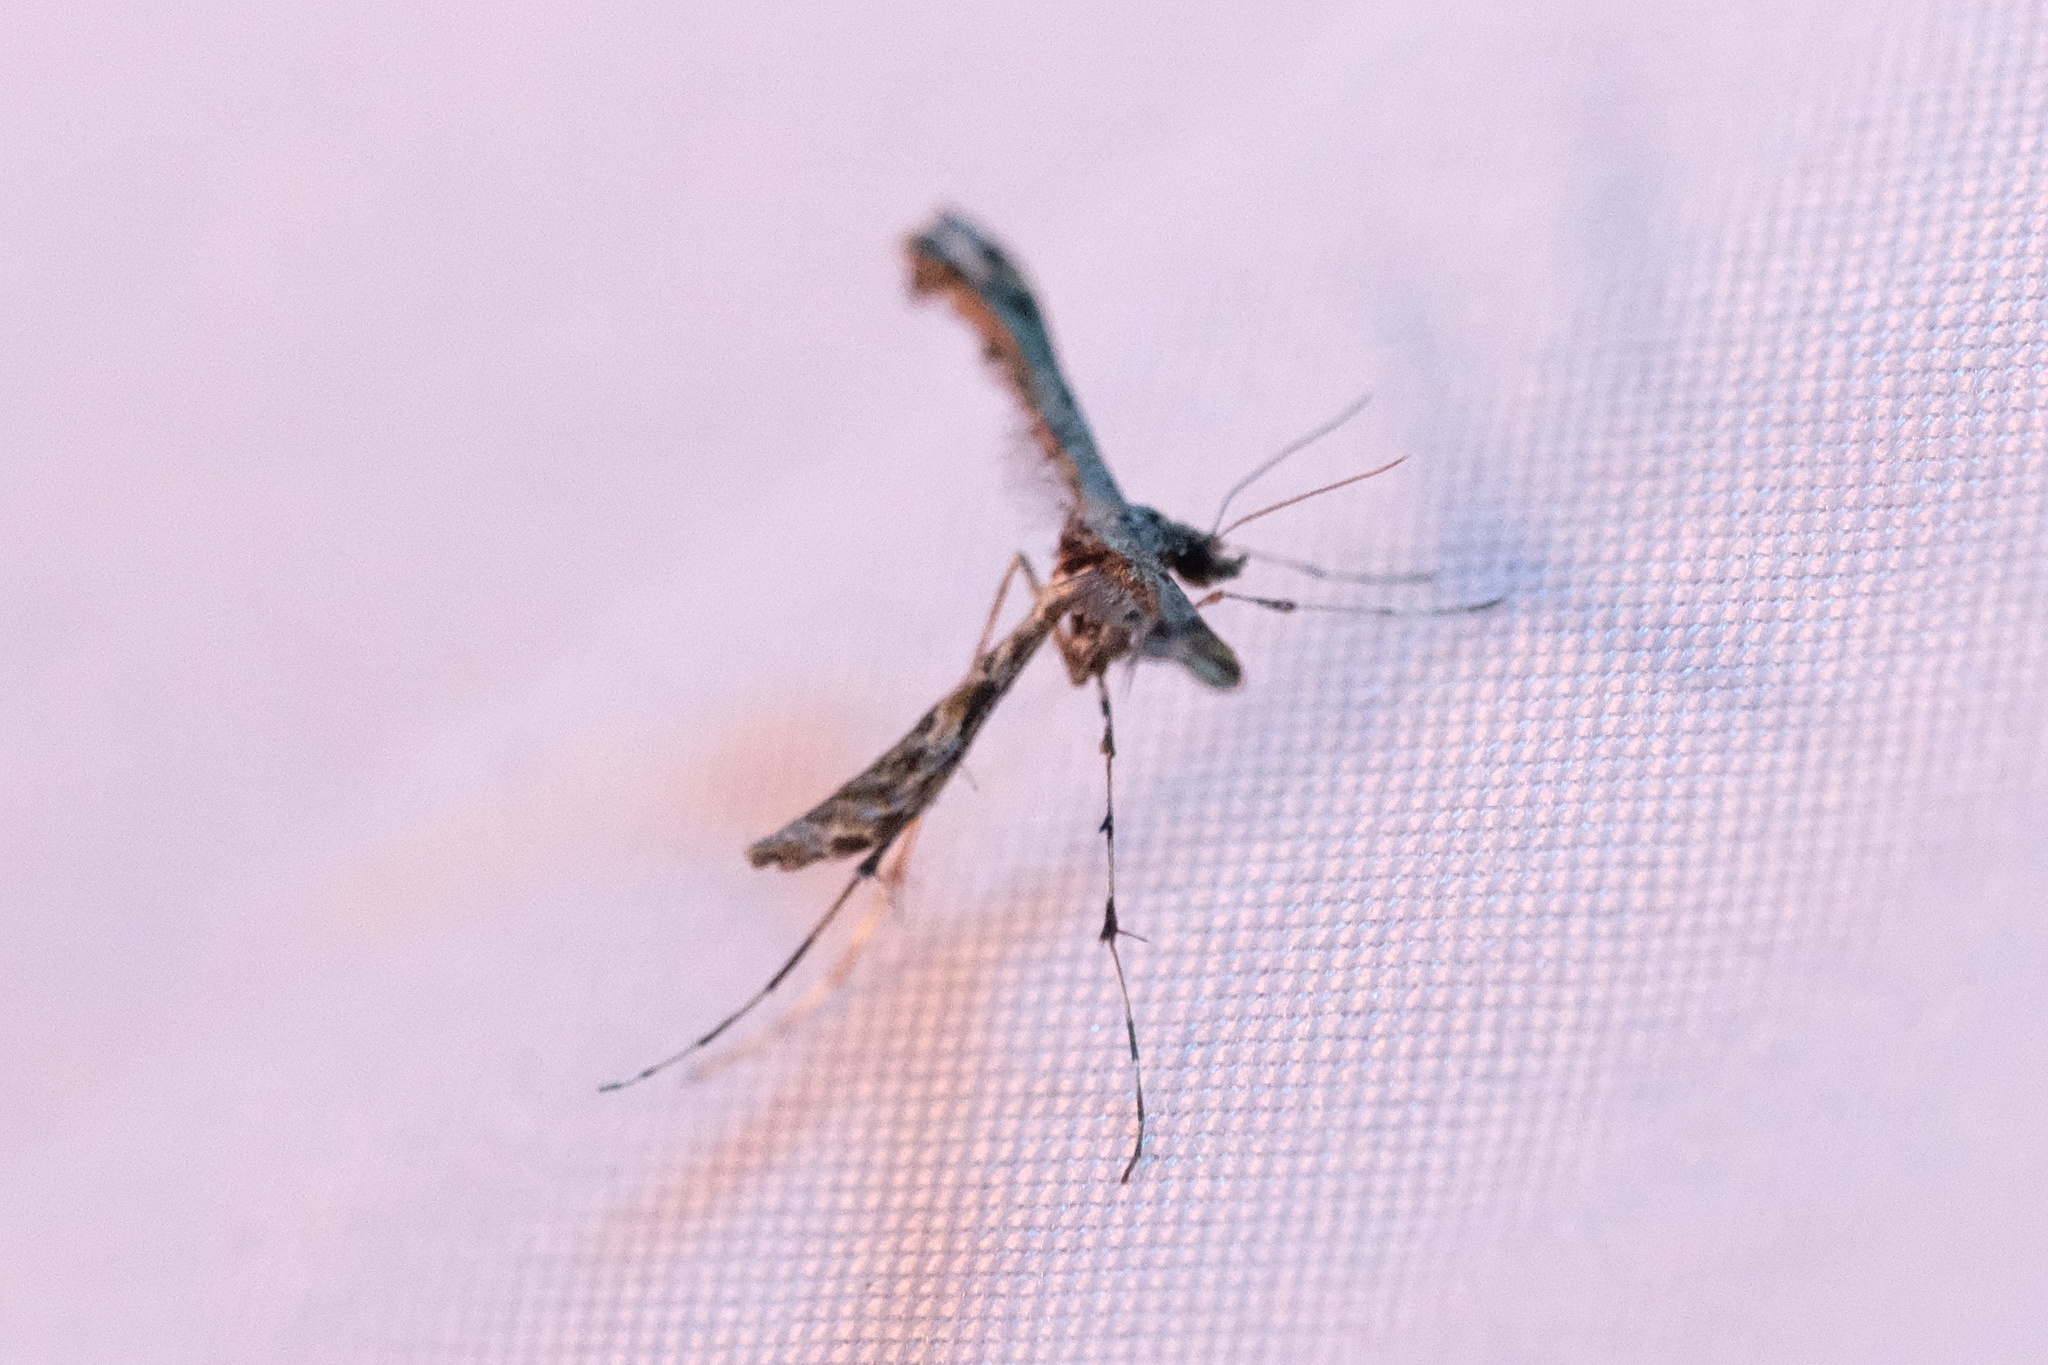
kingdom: Animalia
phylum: Arthropoda
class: Insecta
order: Lepidoptera
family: Pterophoridae
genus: Anstenoptilia
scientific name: Anstenoptilia marmarodactyla
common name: Moth
